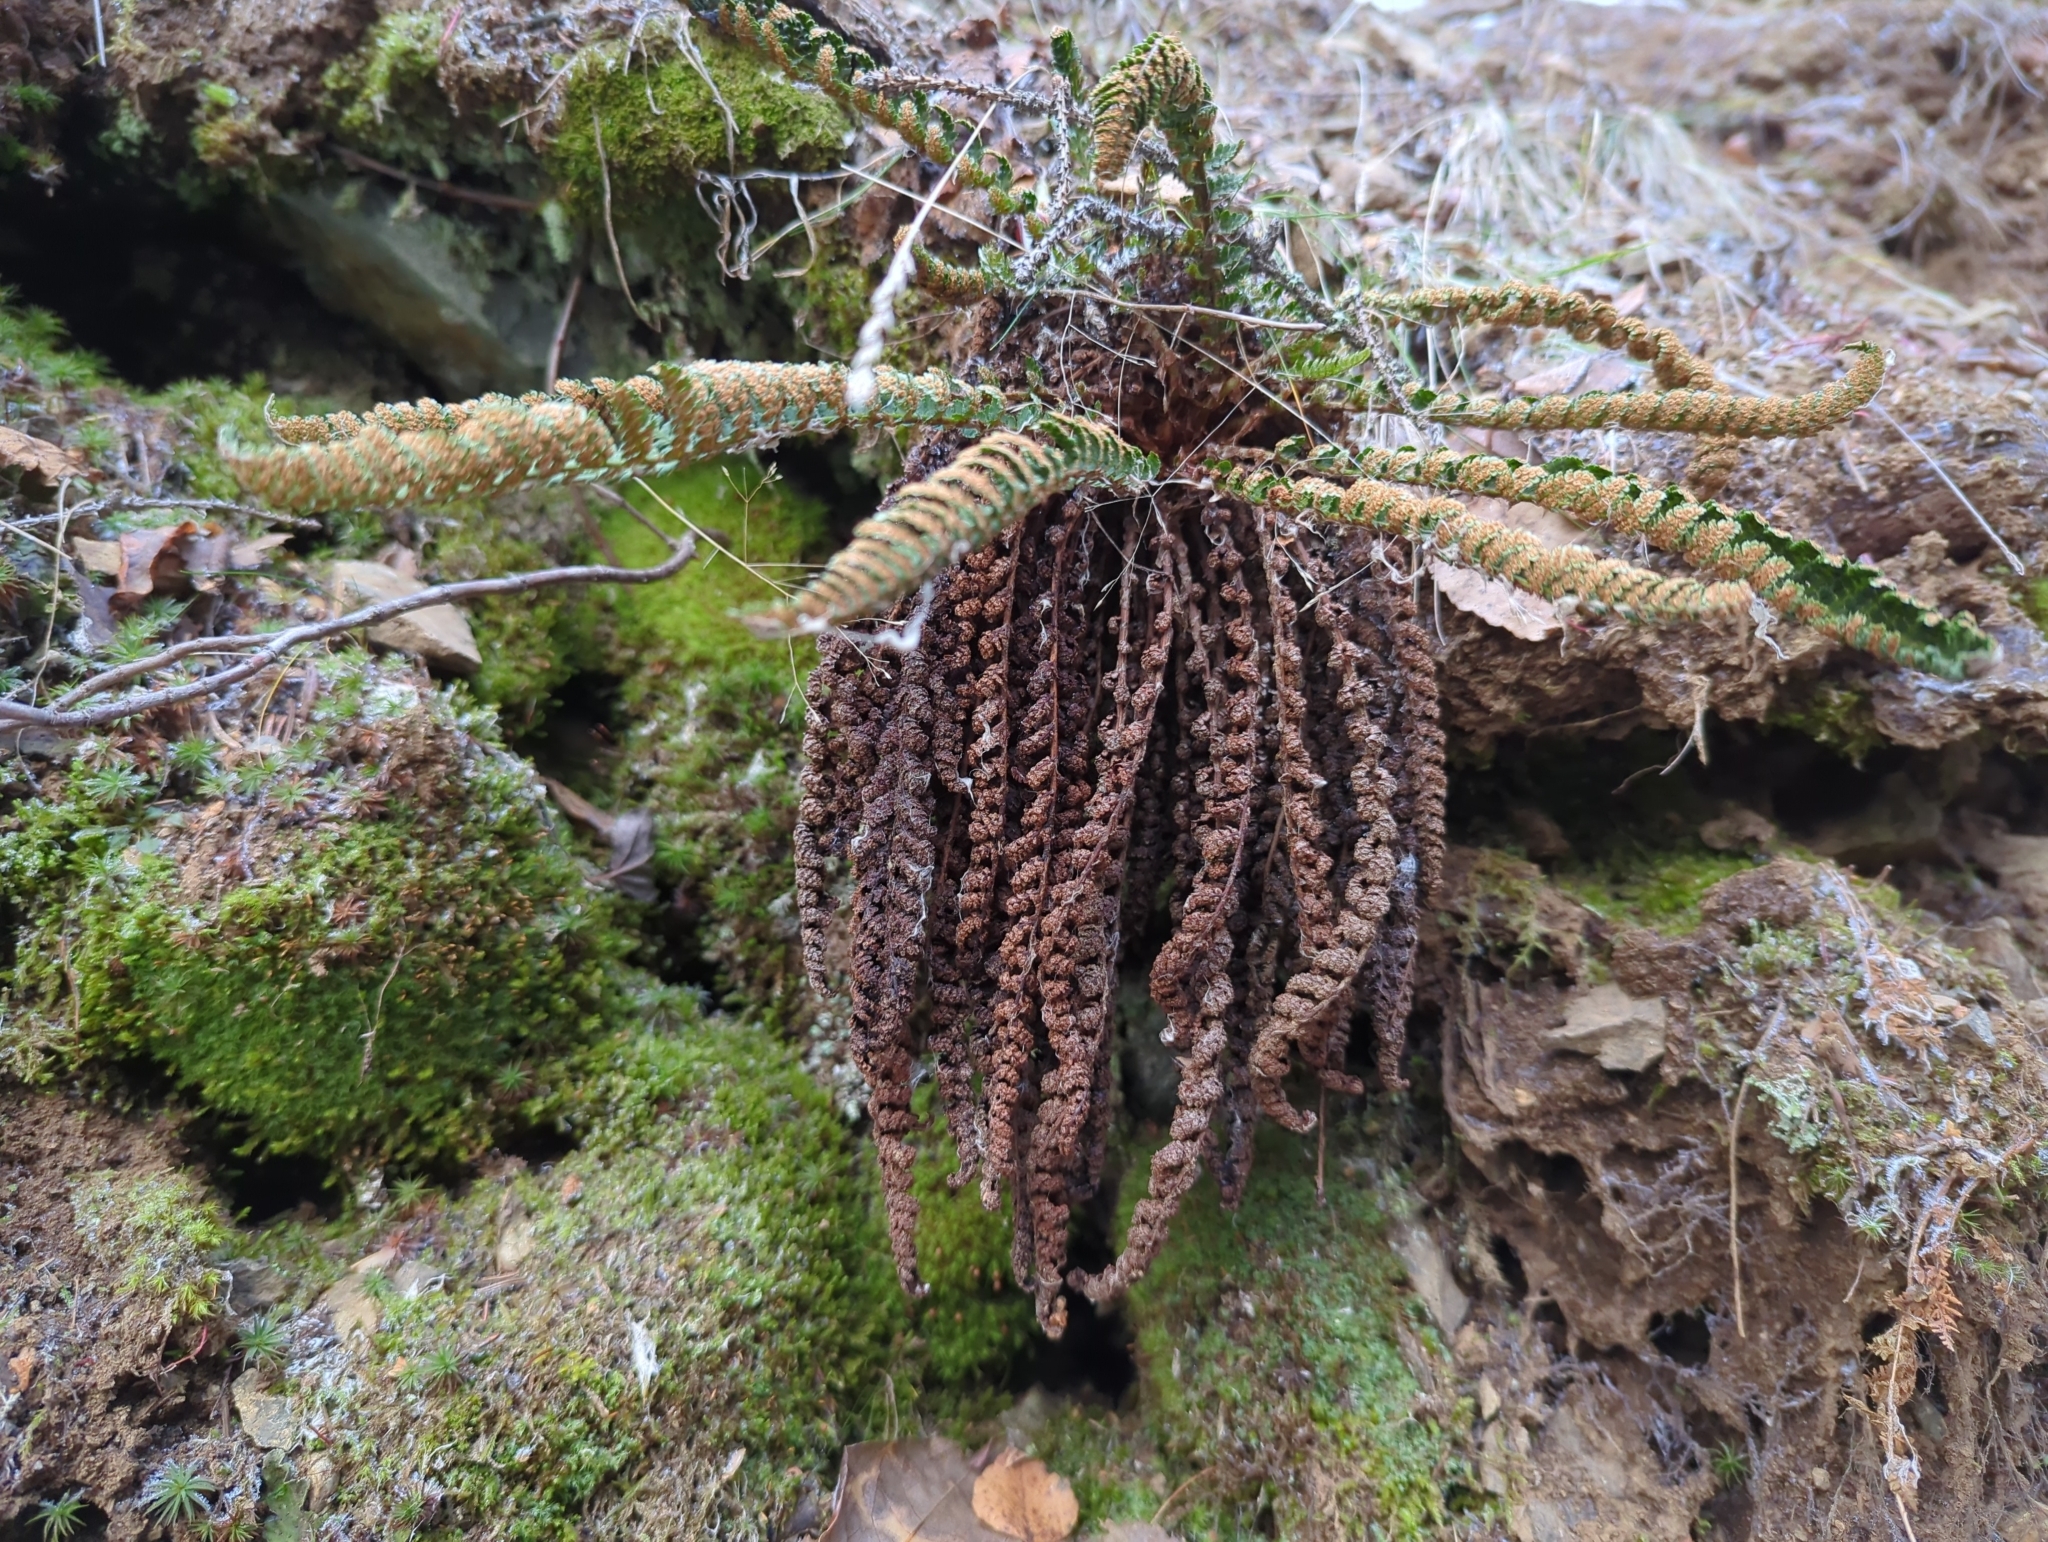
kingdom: Plantae
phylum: Tracheophyta
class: Polypodiopsida
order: Polypodiales
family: Dryopteridaceae
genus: Dryopteris
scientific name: Dryopteris fragrans
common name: Fragrant wood fern
